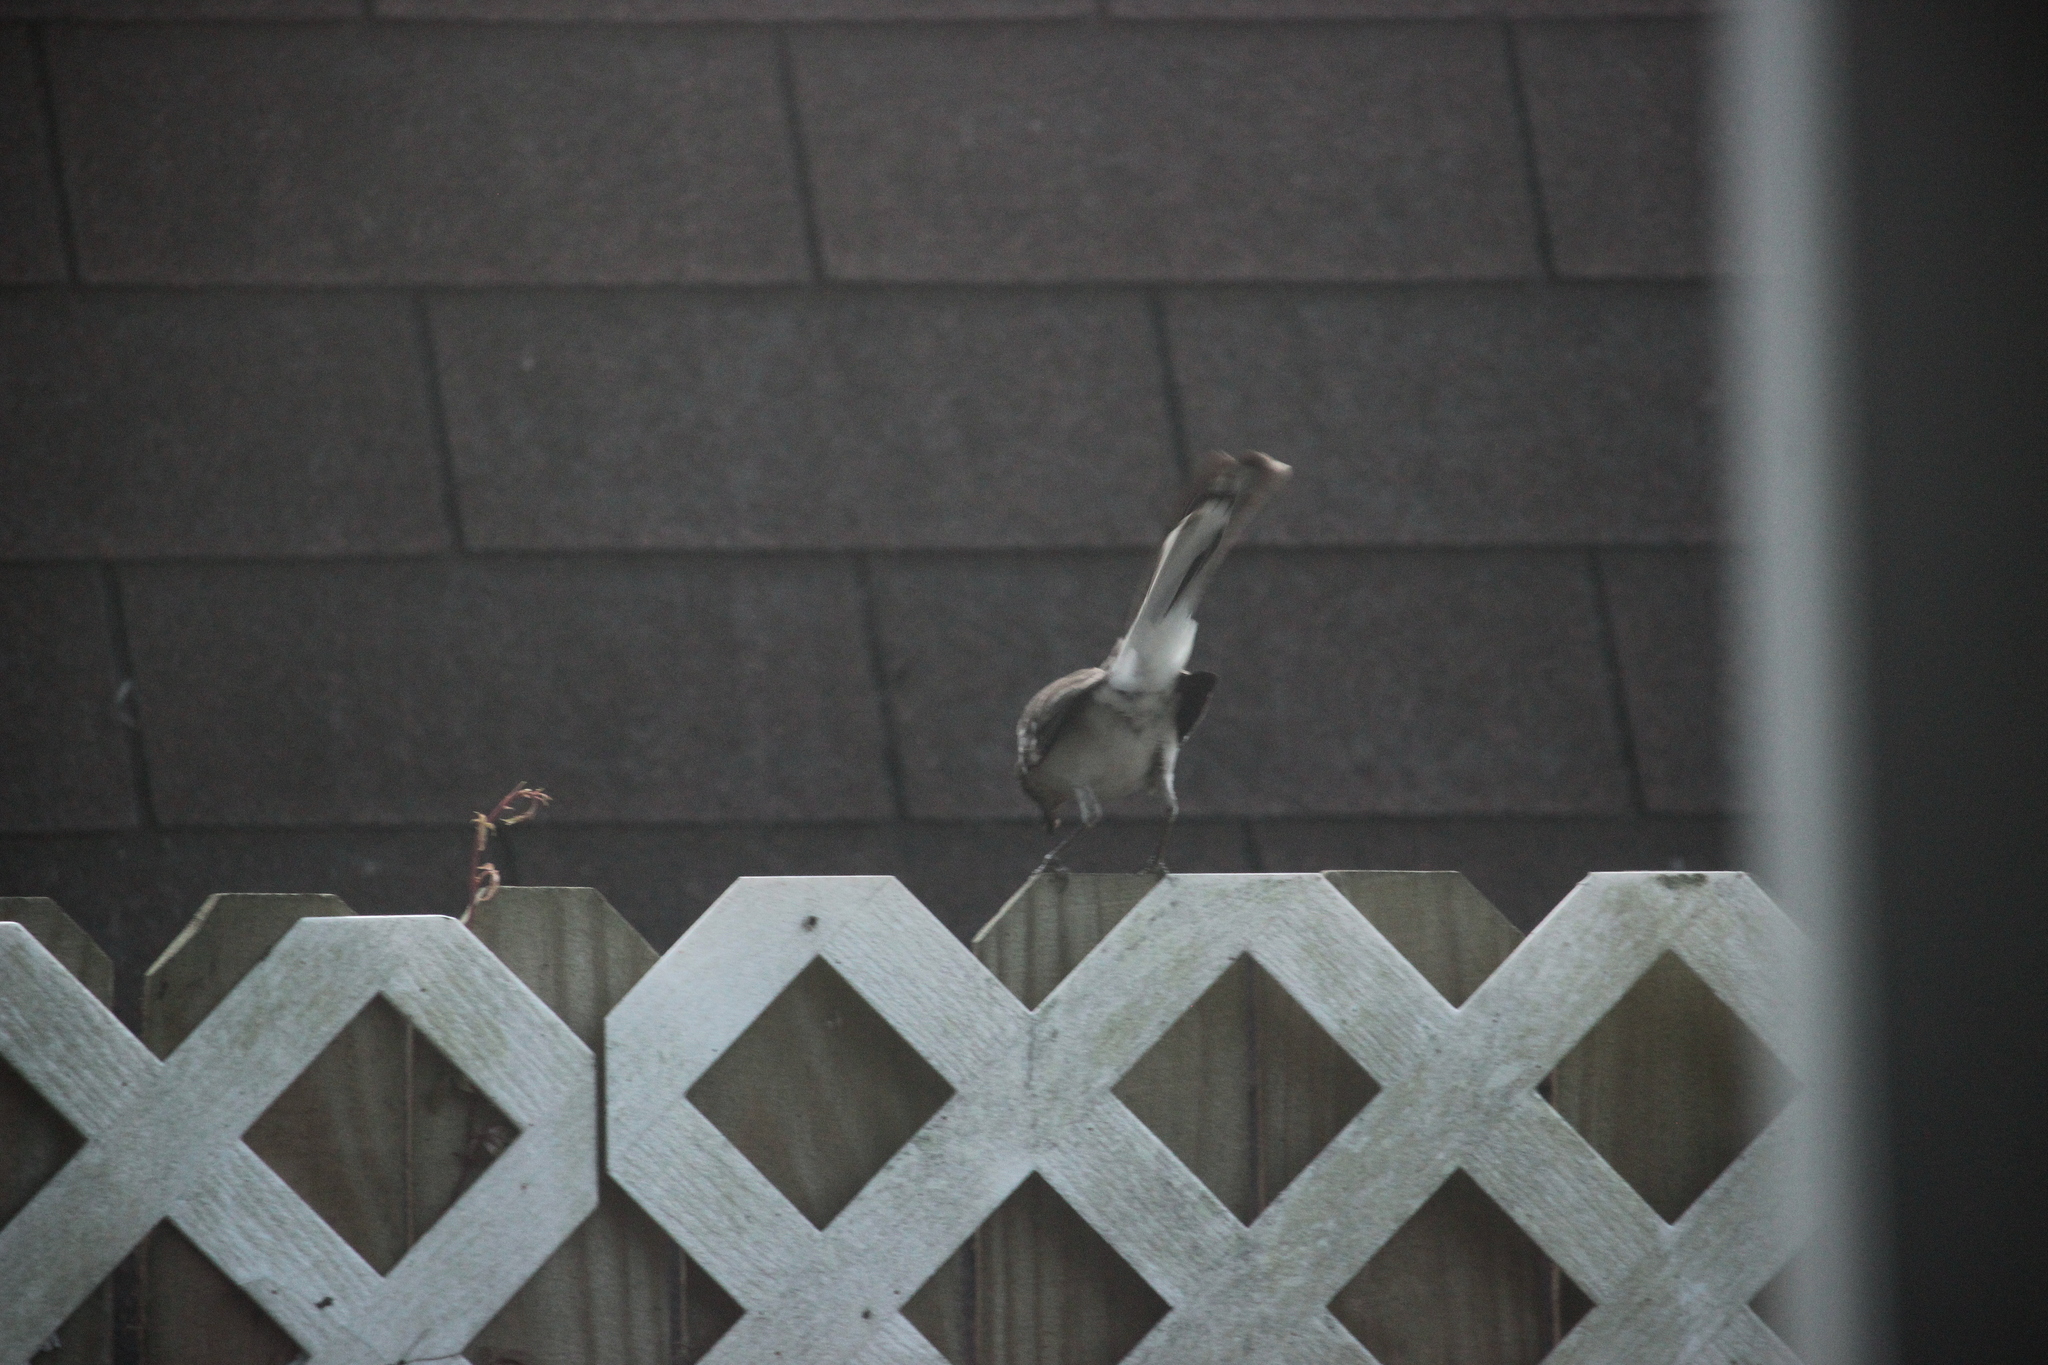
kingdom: Animalia
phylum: Chordata
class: Aves
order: Passeriformes
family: Mimidae
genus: Mimus
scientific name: Mimus polyglottos
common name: Northern mockingbird
